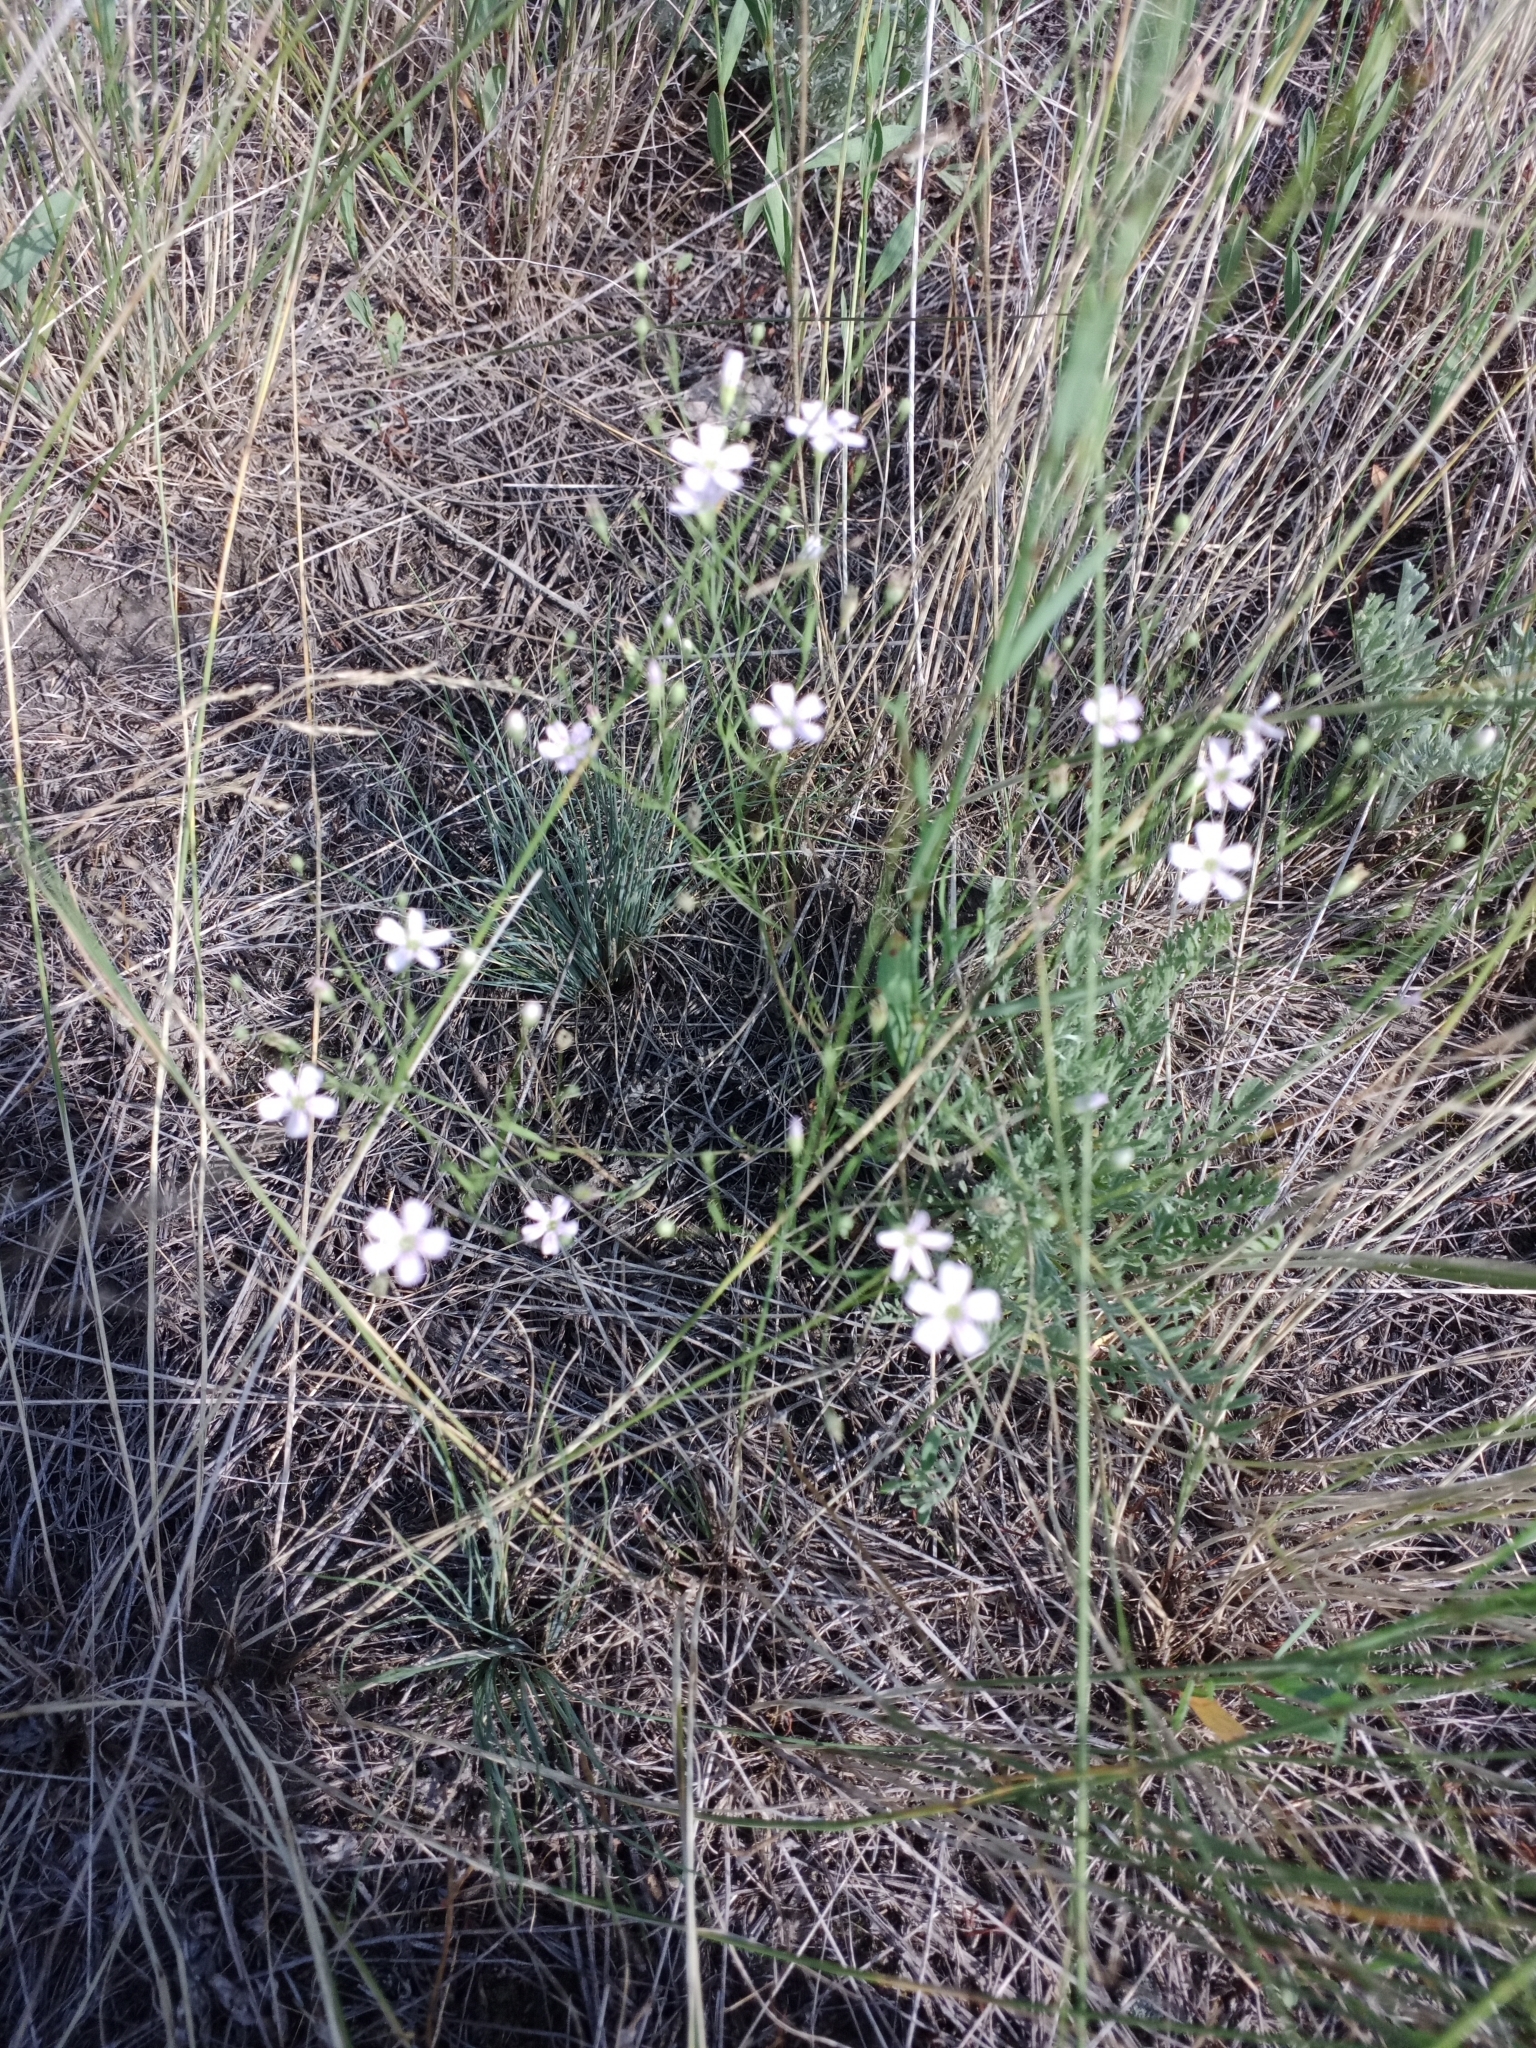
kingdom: Plantae
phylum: Tracheophyta
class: Magnoliopsida
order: Caryophyllales
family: Caryophyllaceae
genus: Psammophiliella
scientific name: Psammophiliella muralis
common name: Cushion baby's-breath
